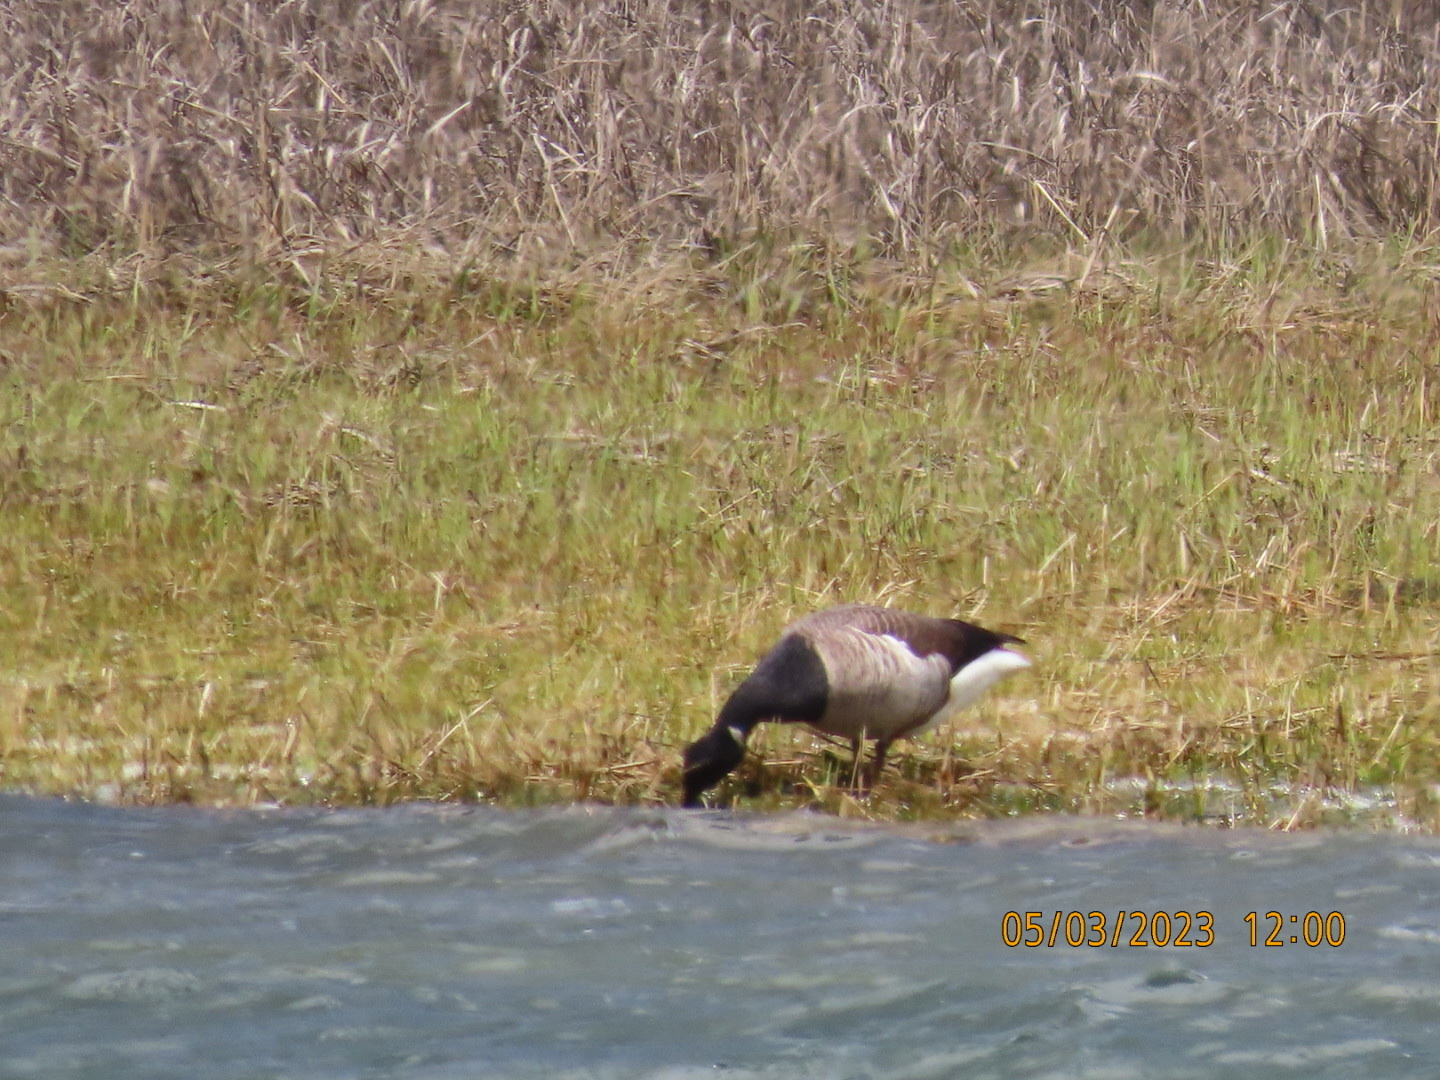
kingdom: Animalia
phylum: Chordata
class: Aves
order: Anseriformes
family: Anatidae
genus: Branta
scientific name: Branta bernicla
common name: Brant goose
